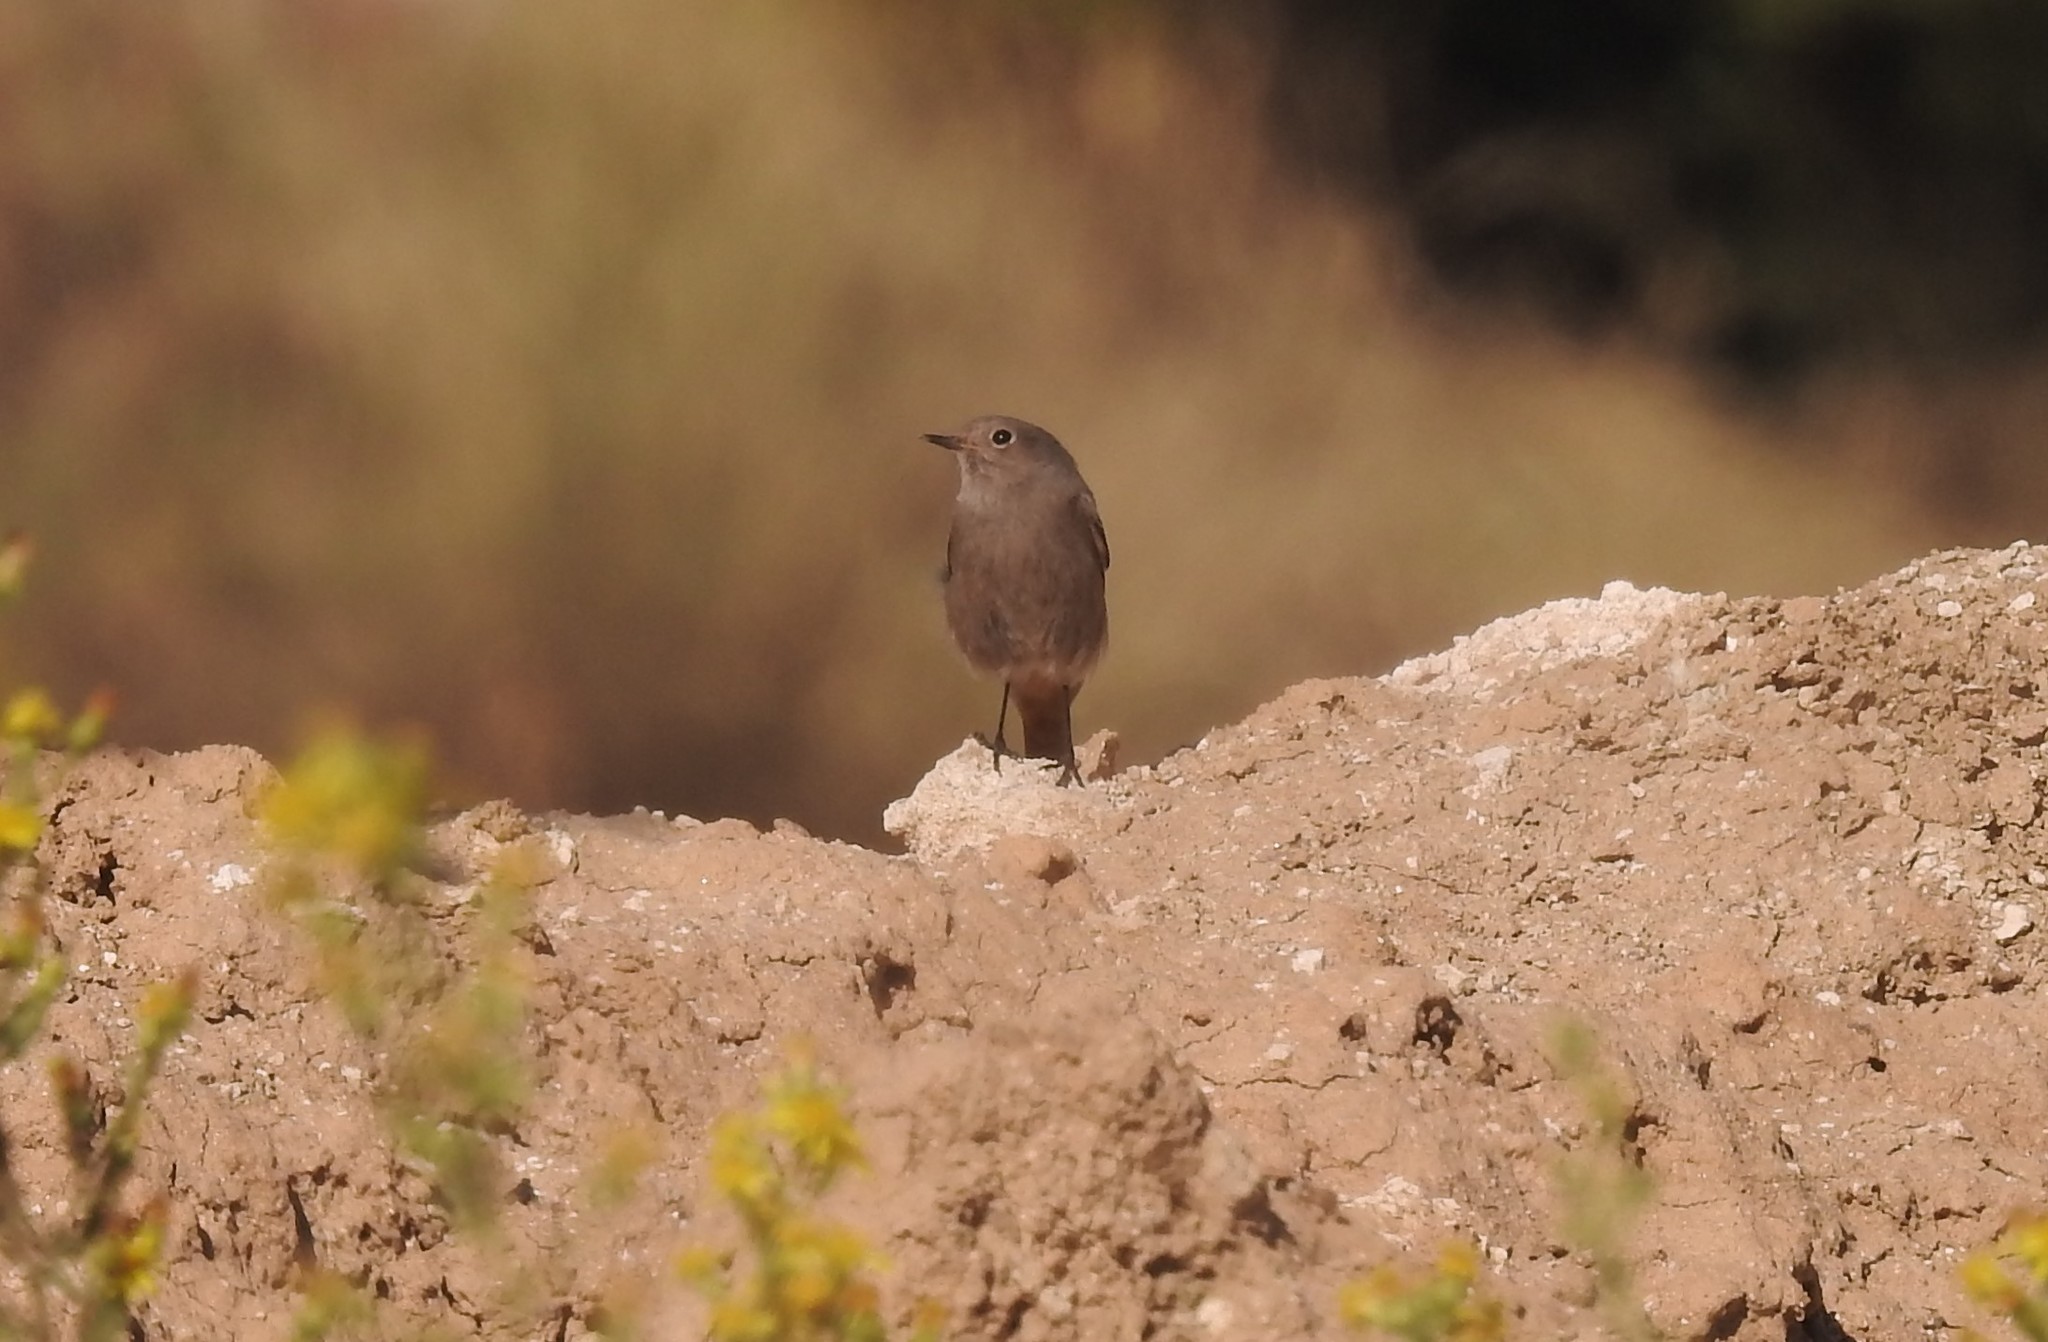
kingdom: Animalia
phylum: Chordata
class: Aves
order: Passeriformes
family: Muscicapidae
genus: Phoenicurus
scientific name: Phoenicurus ochruros
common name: Black redstart
